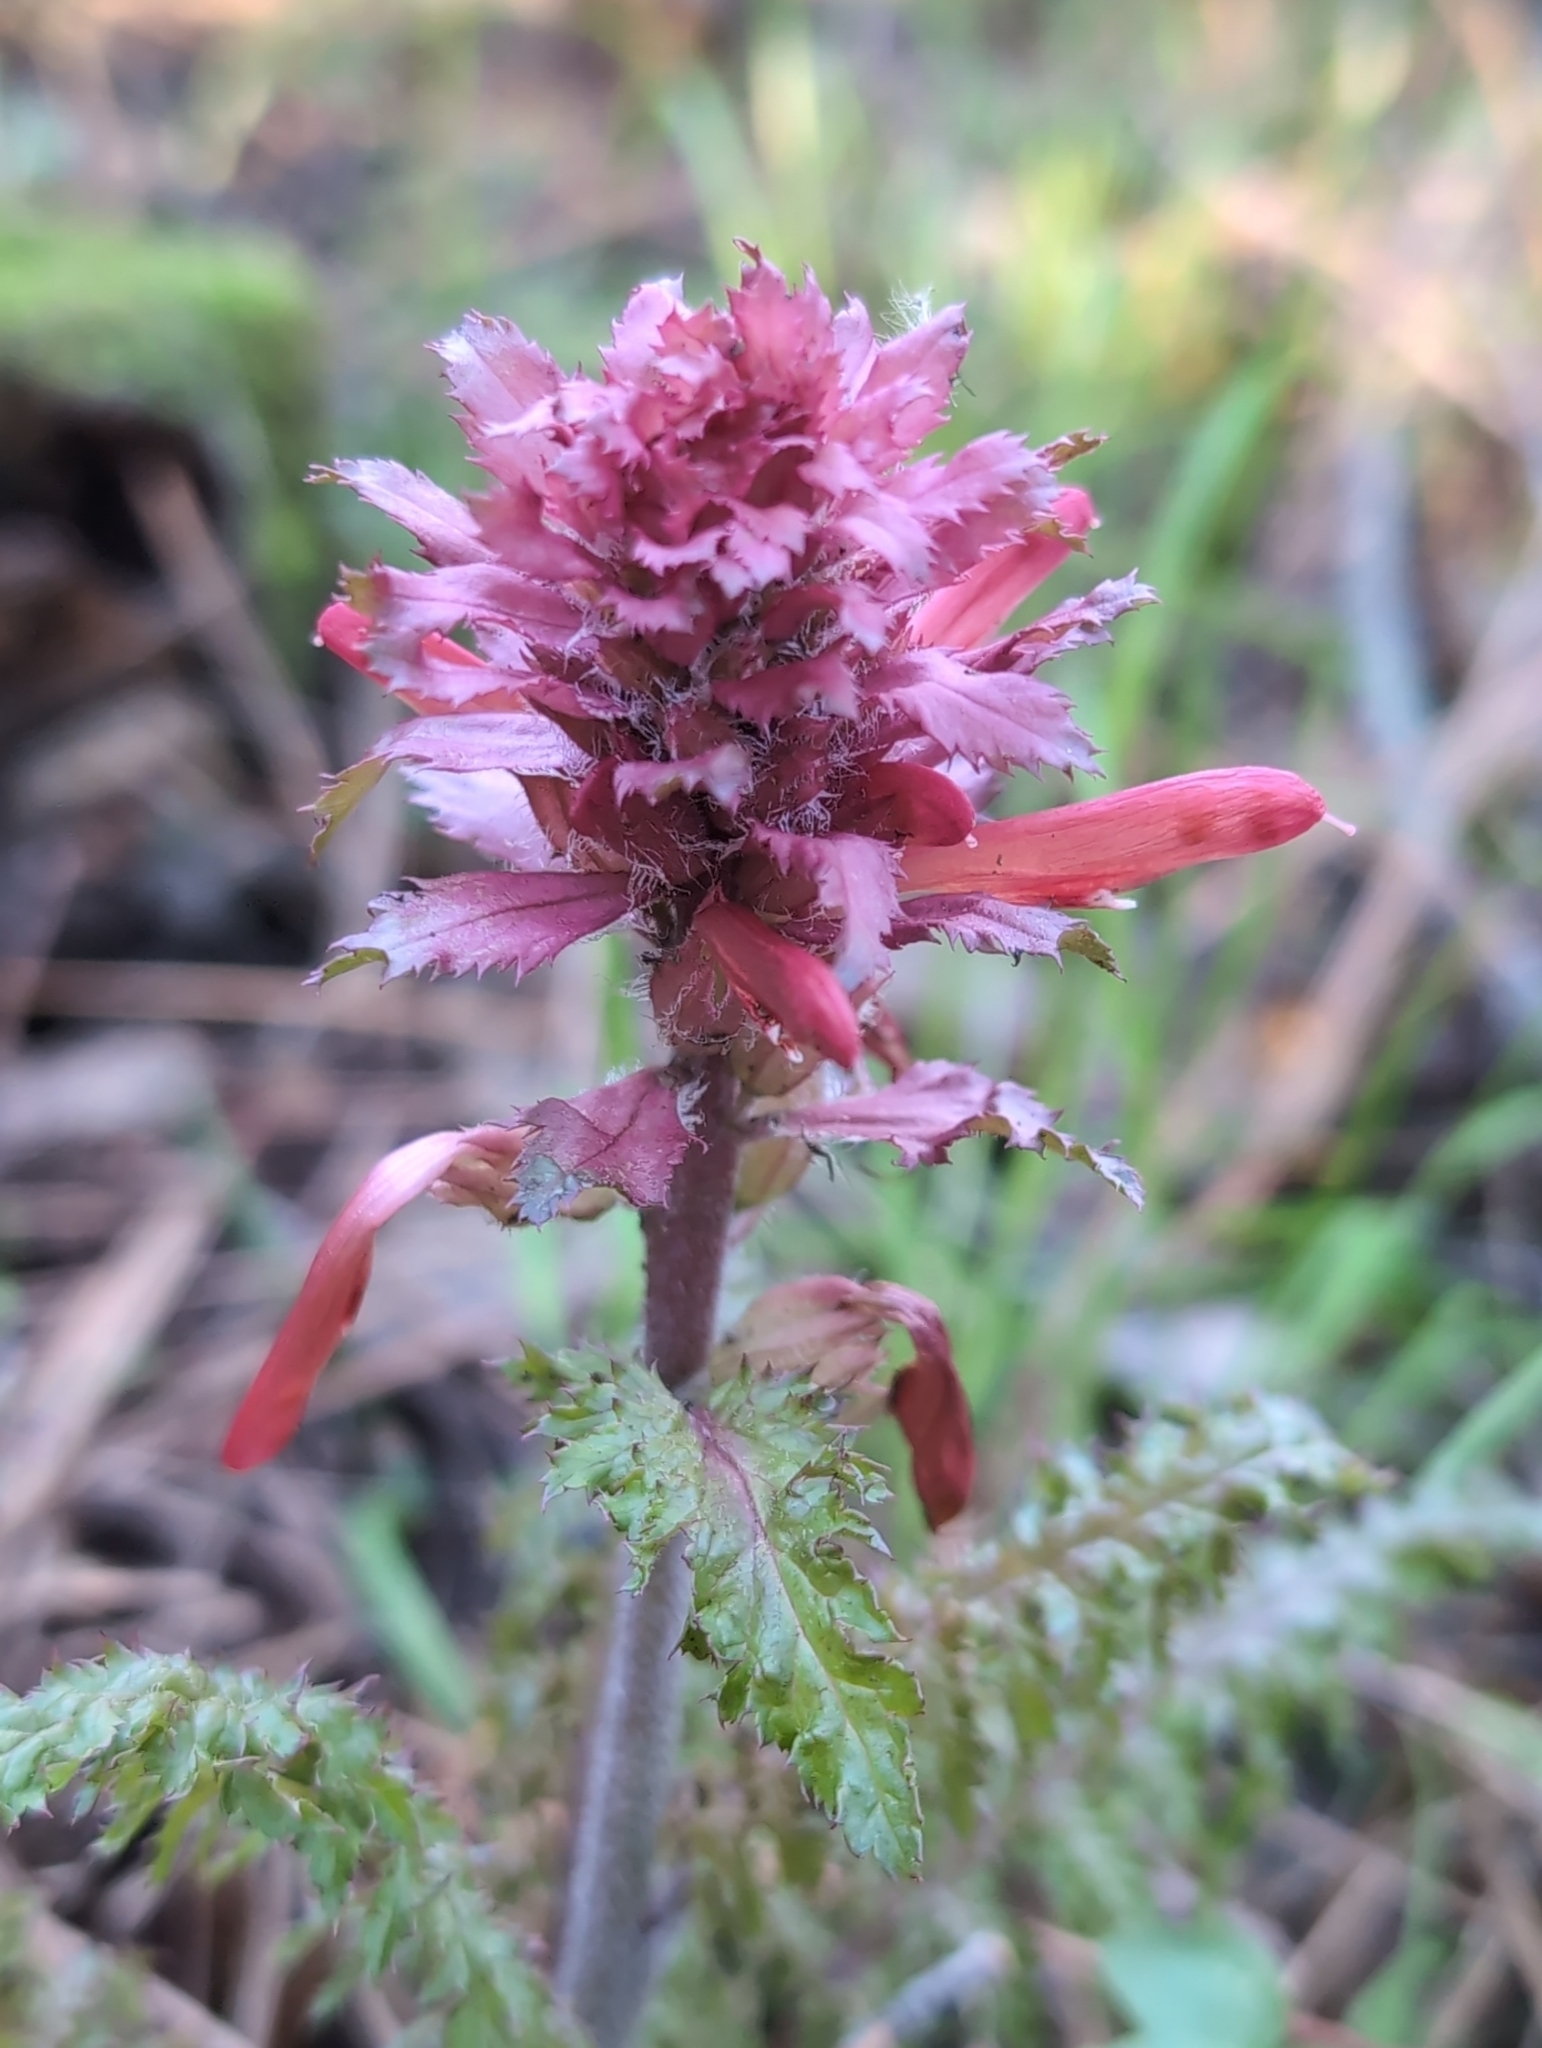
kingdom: Plantae
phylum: Tracheophyta
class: Magnoliopsida
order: Lamiales
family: Orobanchaceae
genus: Pedicularis
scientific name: Pedicularis densiflora
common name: Indian warrior
